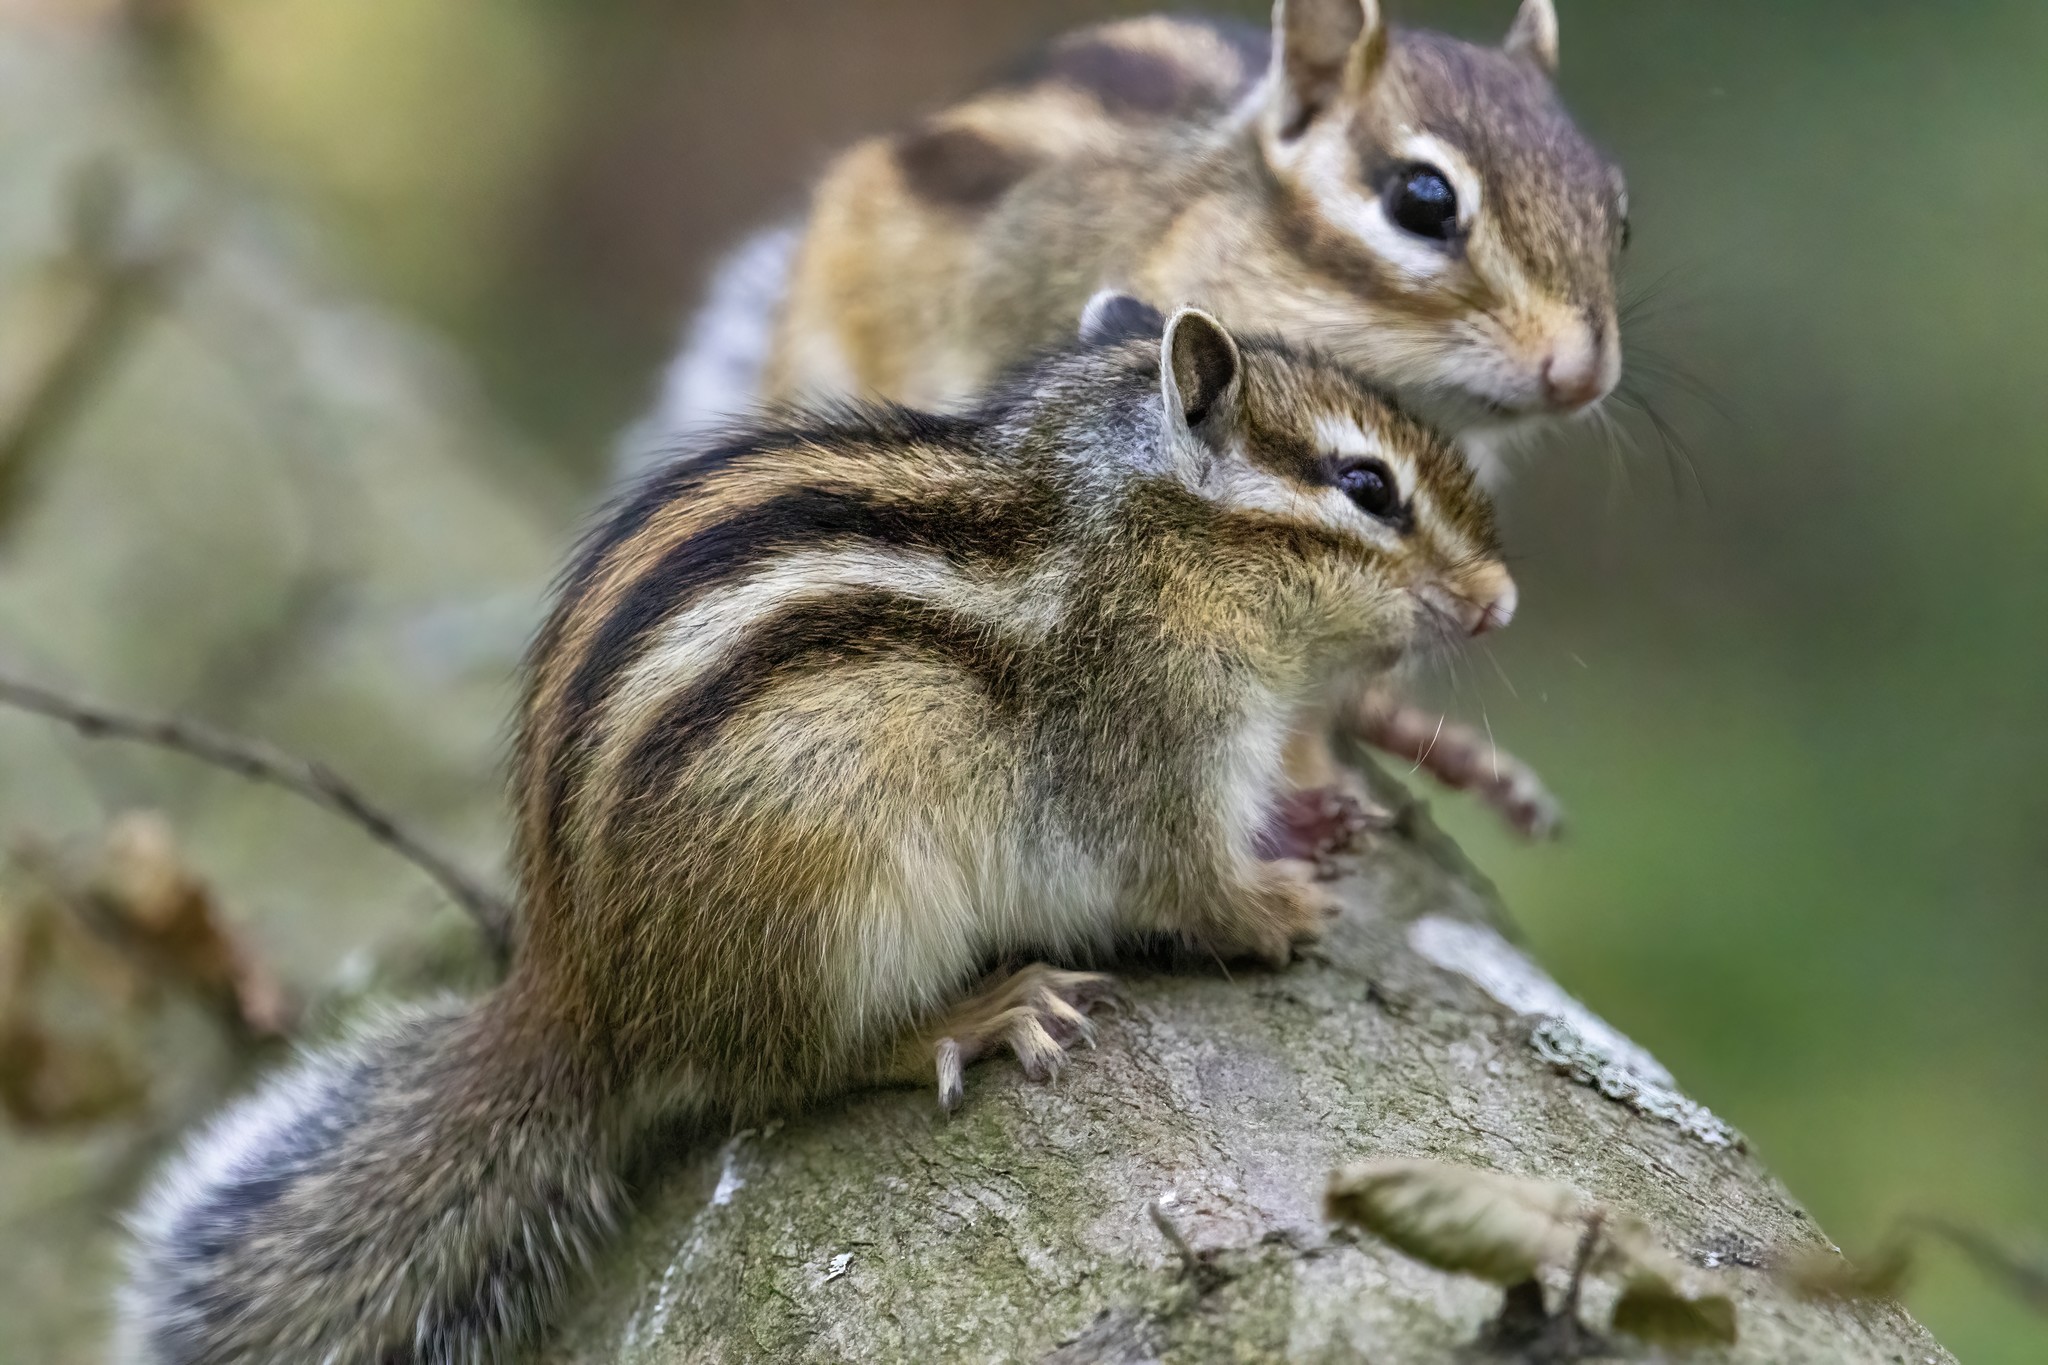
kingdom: Animalia
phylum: Chordata
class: Mammalia
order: Rodentia
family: Sciuridae
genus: Tamias
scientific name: Tamias sibiricus
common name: Siberian chipmunk
